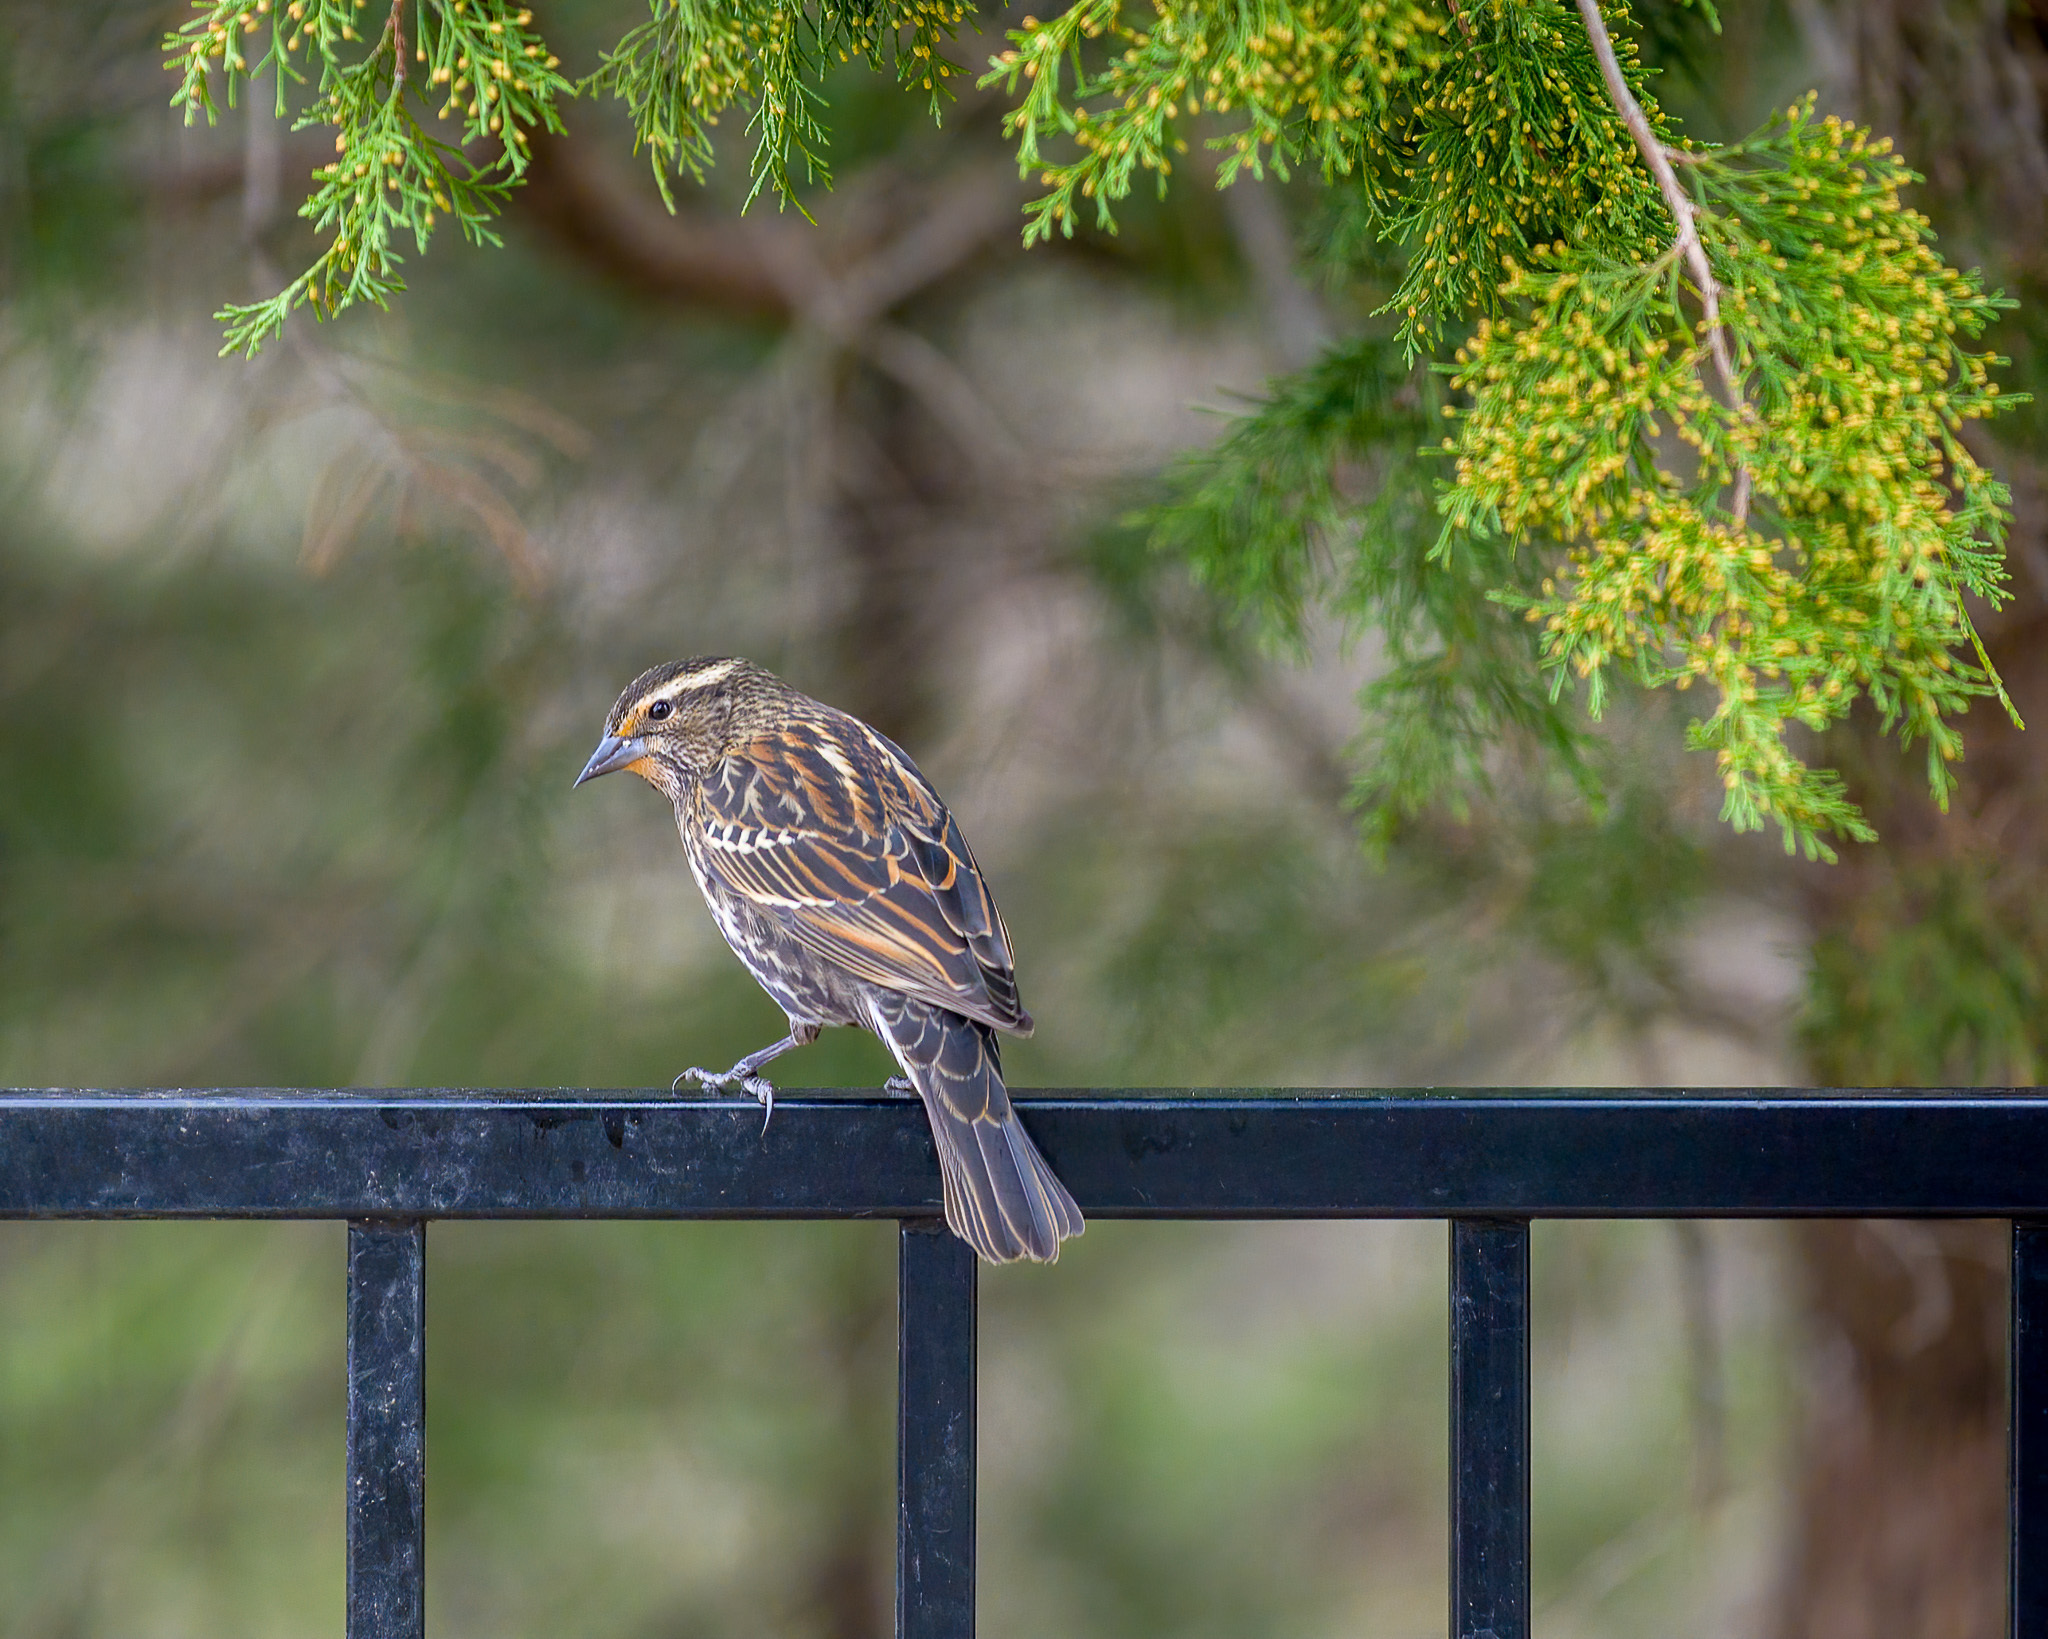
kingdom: Animalia
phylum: Chordata
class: Aves
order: Passeriformes
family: Icteridae
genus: Agelaius
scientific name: Agelaius phoeniceus
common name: Red-winged blackbird
